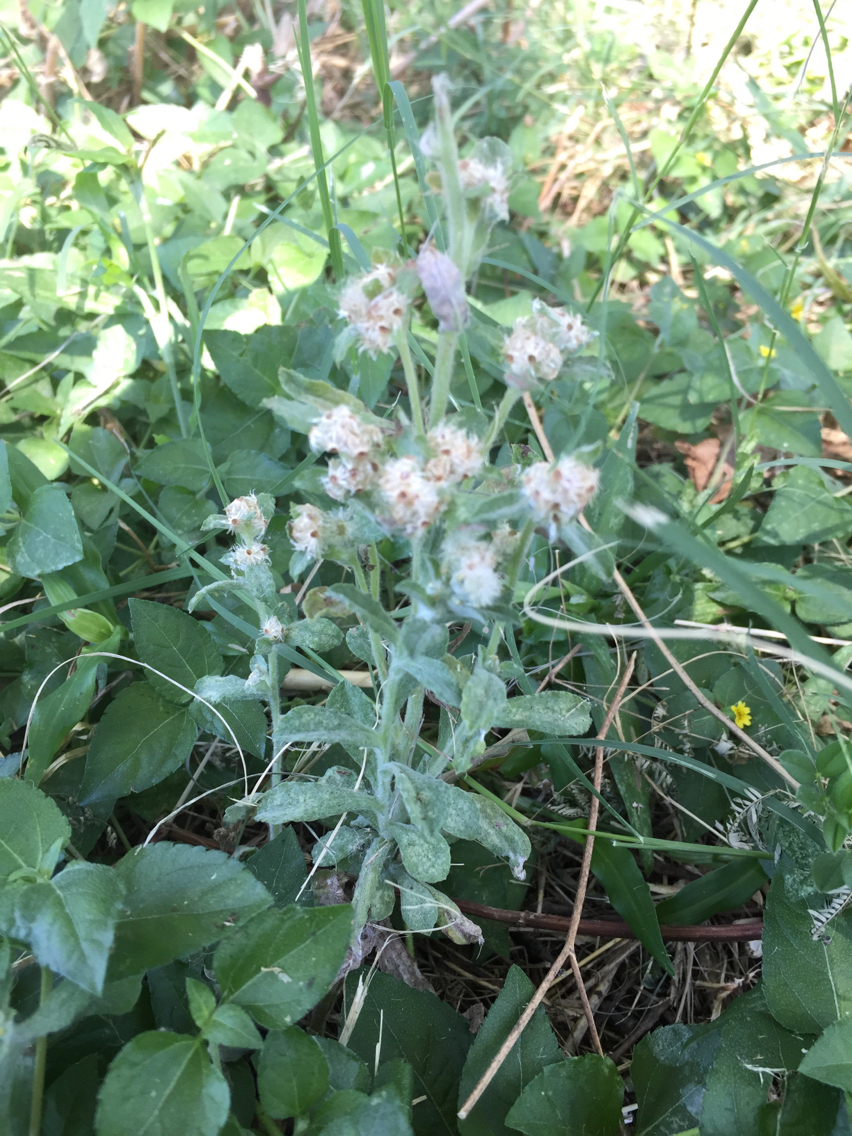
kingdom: Plantae
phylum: Tracheophyta
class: Magnoliopsida
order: Asterales
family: Asteraceae
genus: Gamochaeta
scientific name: Gamochaeta pensylvanica
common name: Pennsylvania everlasting
